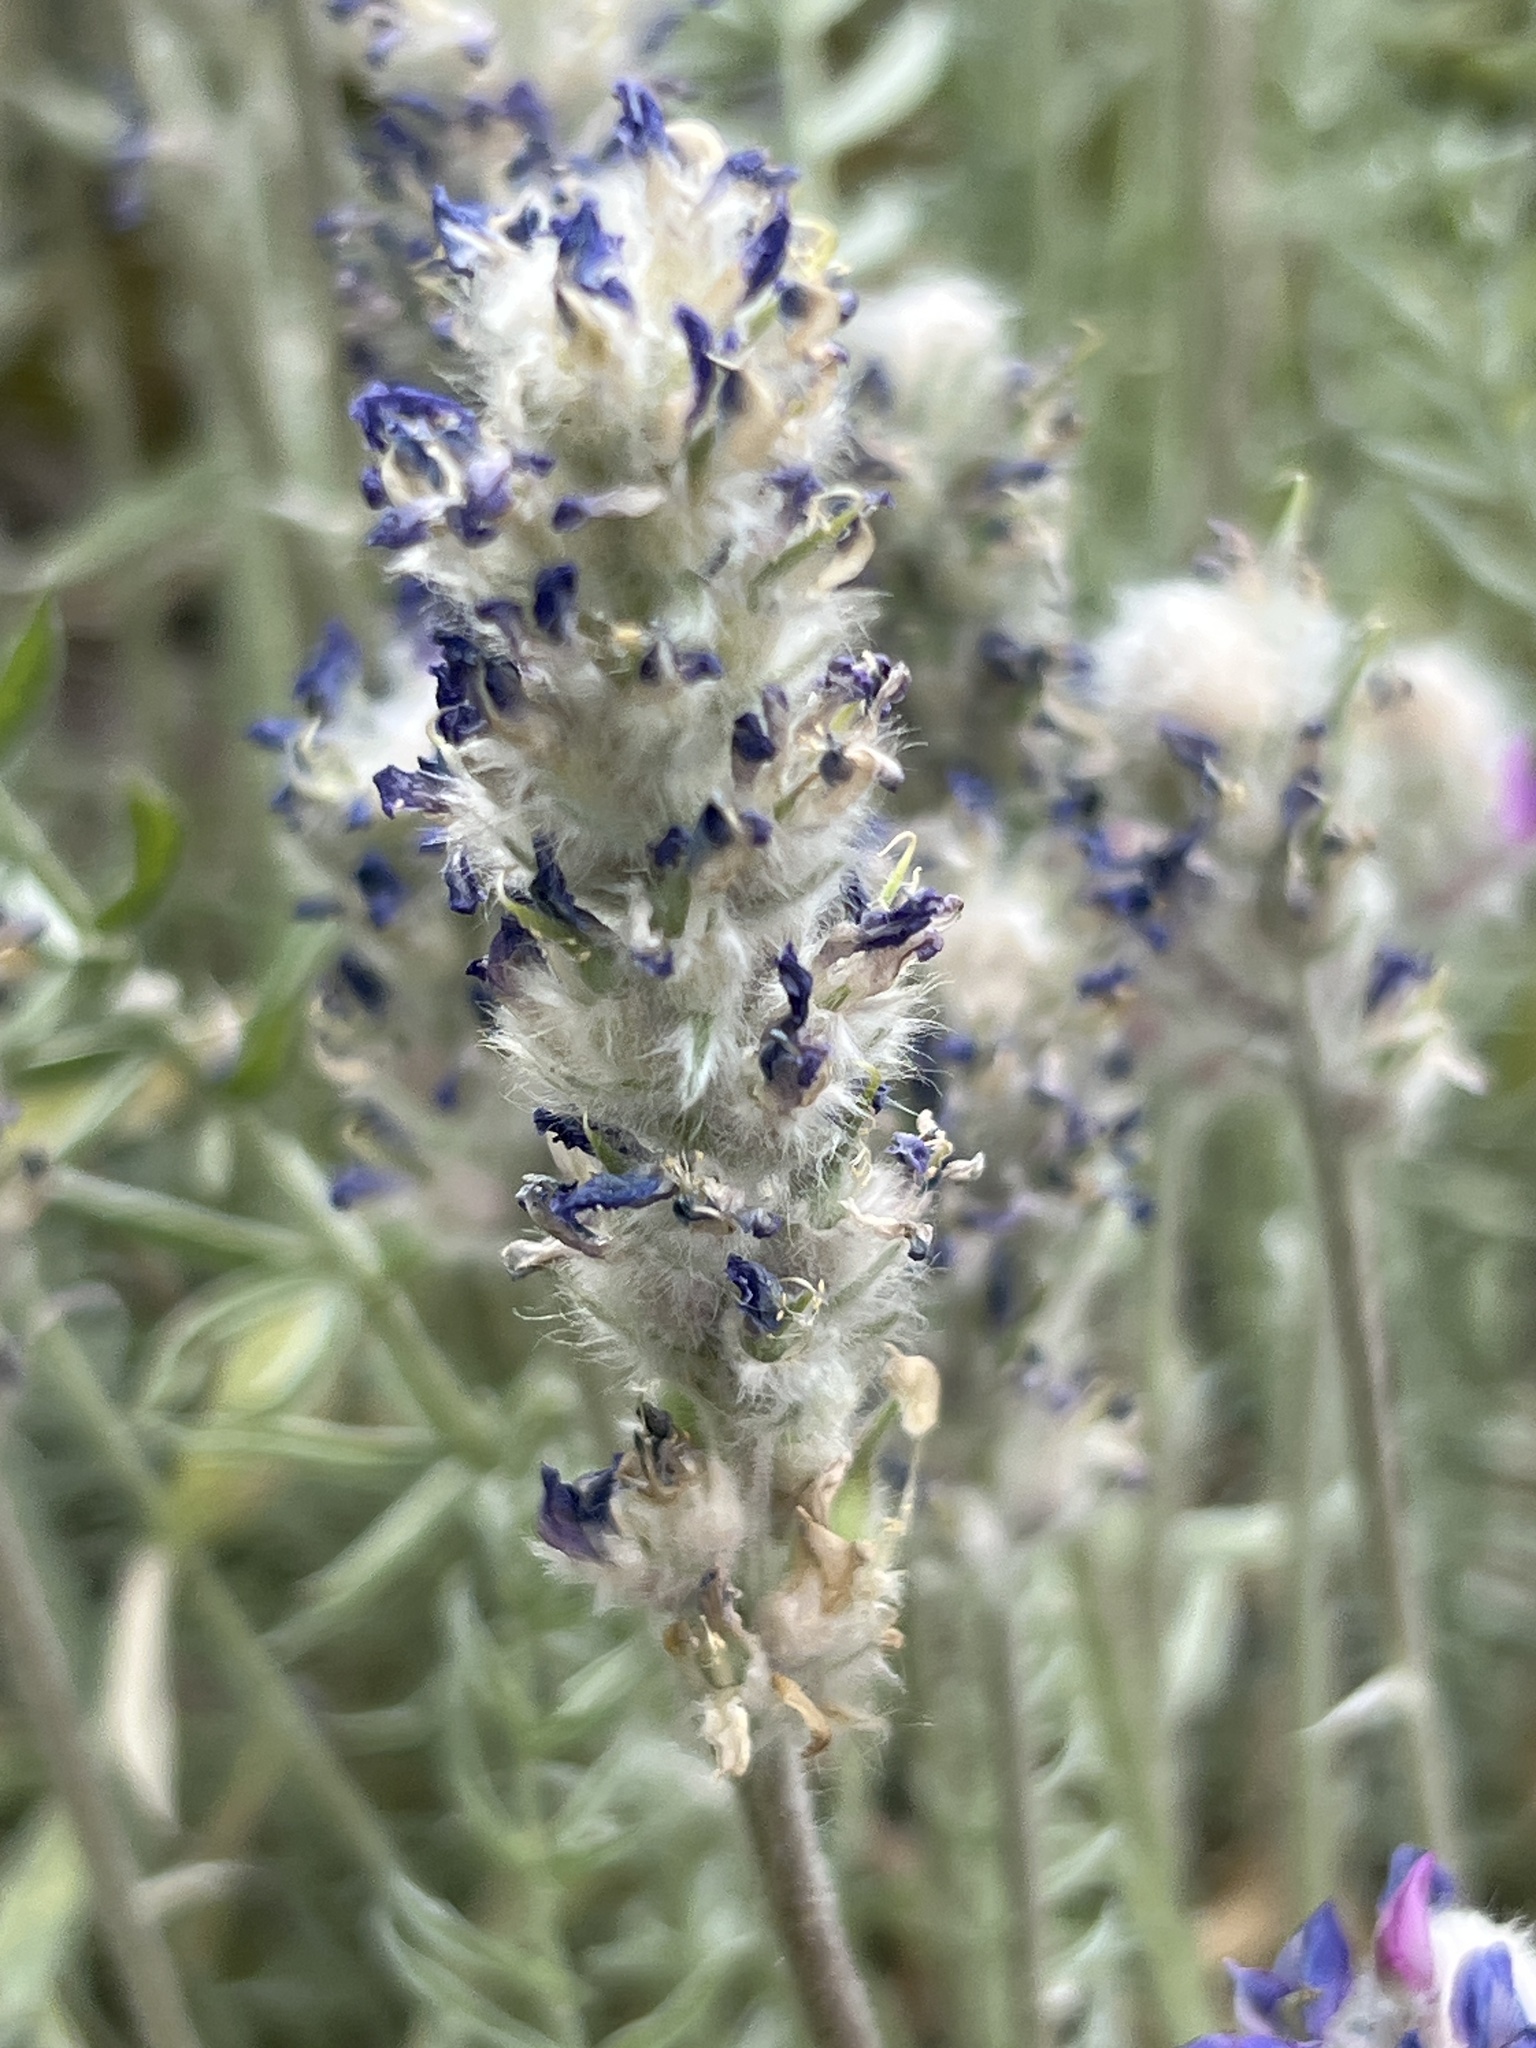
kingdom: Plantae
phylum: Tracheophyta
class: Magnoliopsida
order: Fabales
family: Fabaceae
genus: Oxytropis
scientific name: Oxytropis splendens
